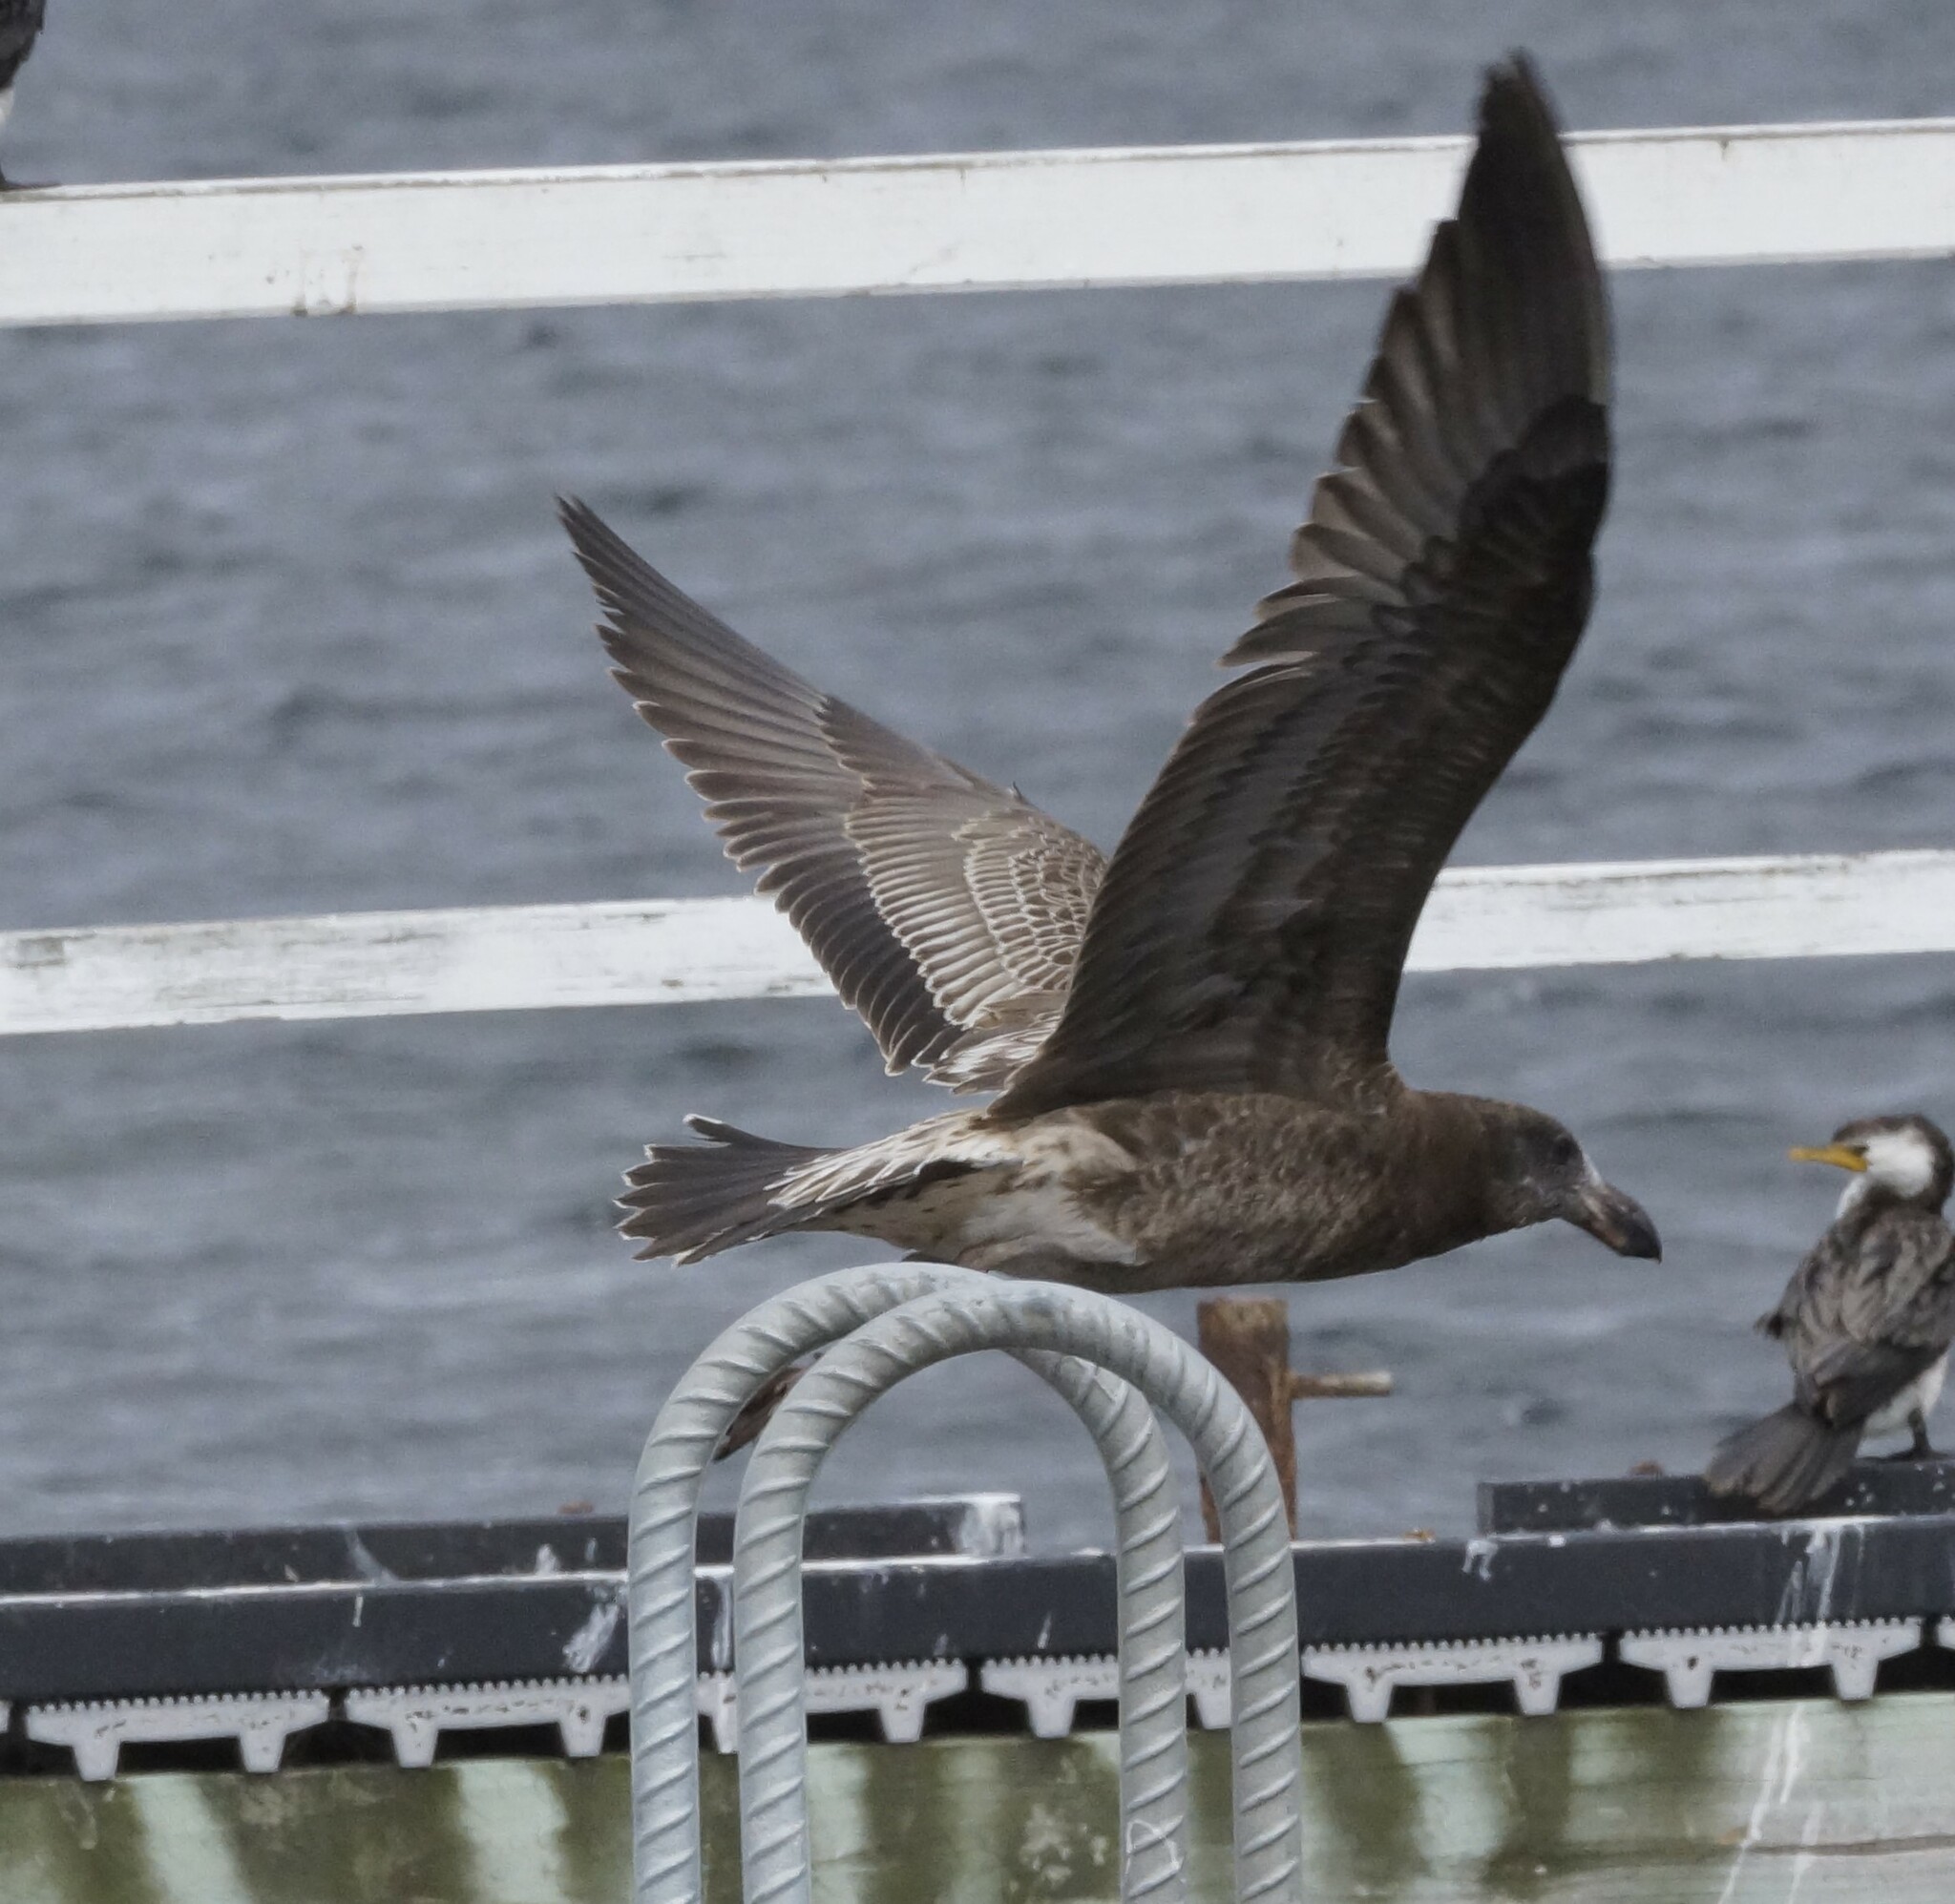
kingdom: Animalia
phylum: Chordata
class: Aves
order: Charadriiformes
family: Laridae
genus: Larus
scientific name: Larus pacificus
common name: Pacific gull
